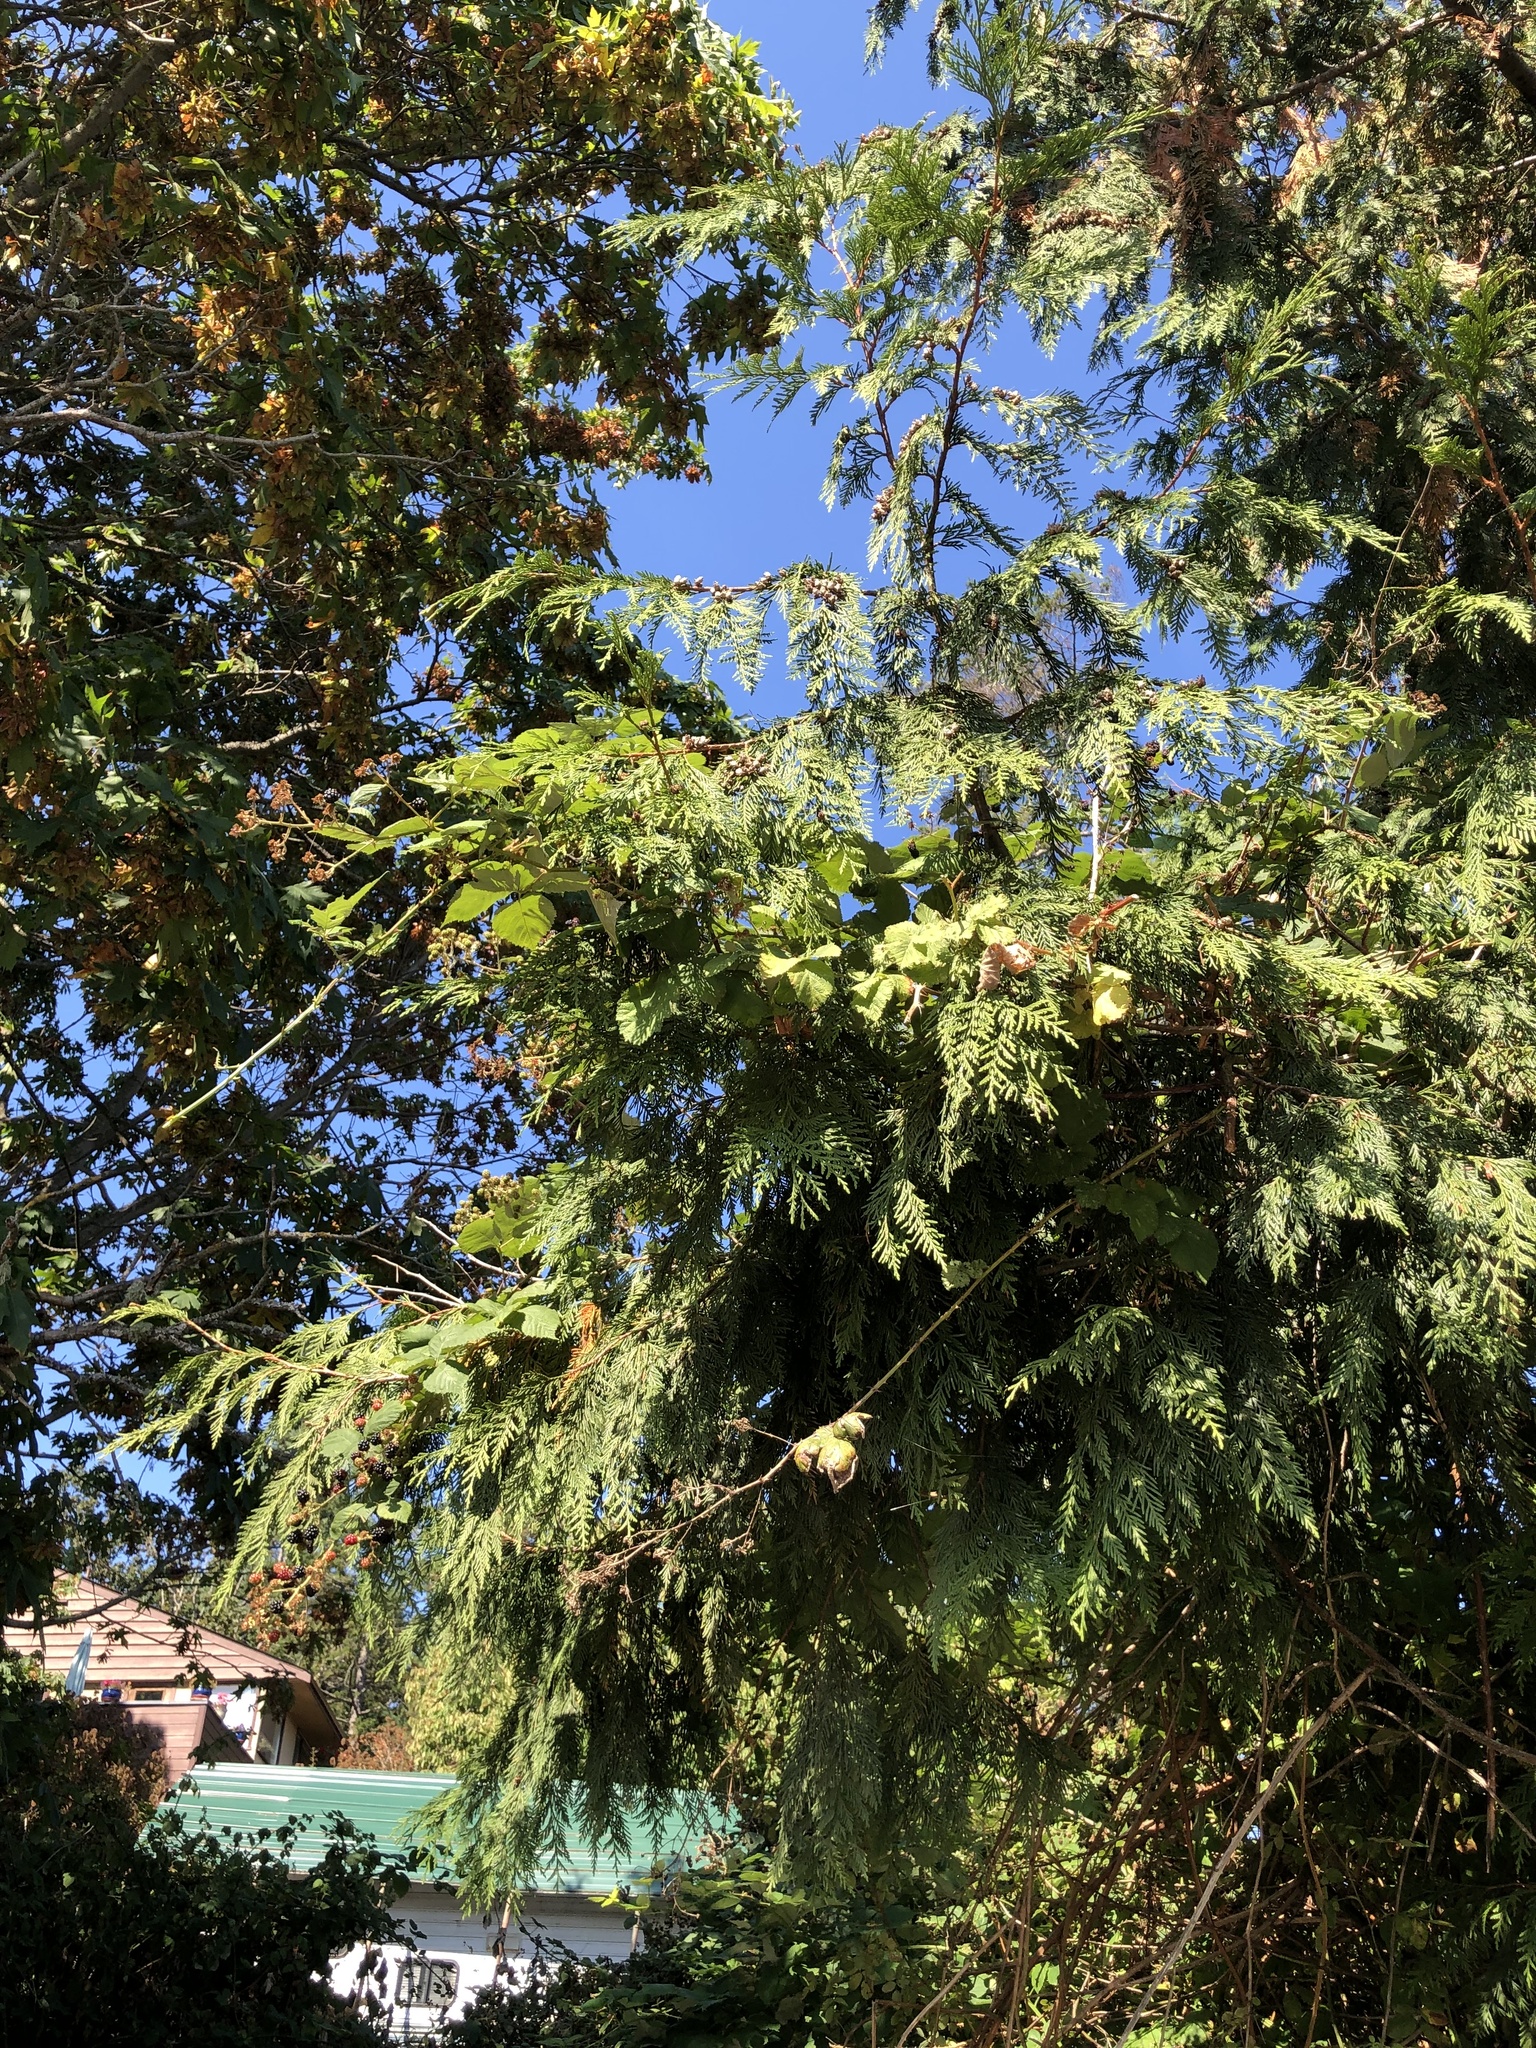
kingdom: Plantae
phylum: Tracheophyta
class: Pinopsida
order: Pinales
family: Cupressaceae
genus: Thuja
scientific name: Thuja plicata
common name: Western red-cedar
